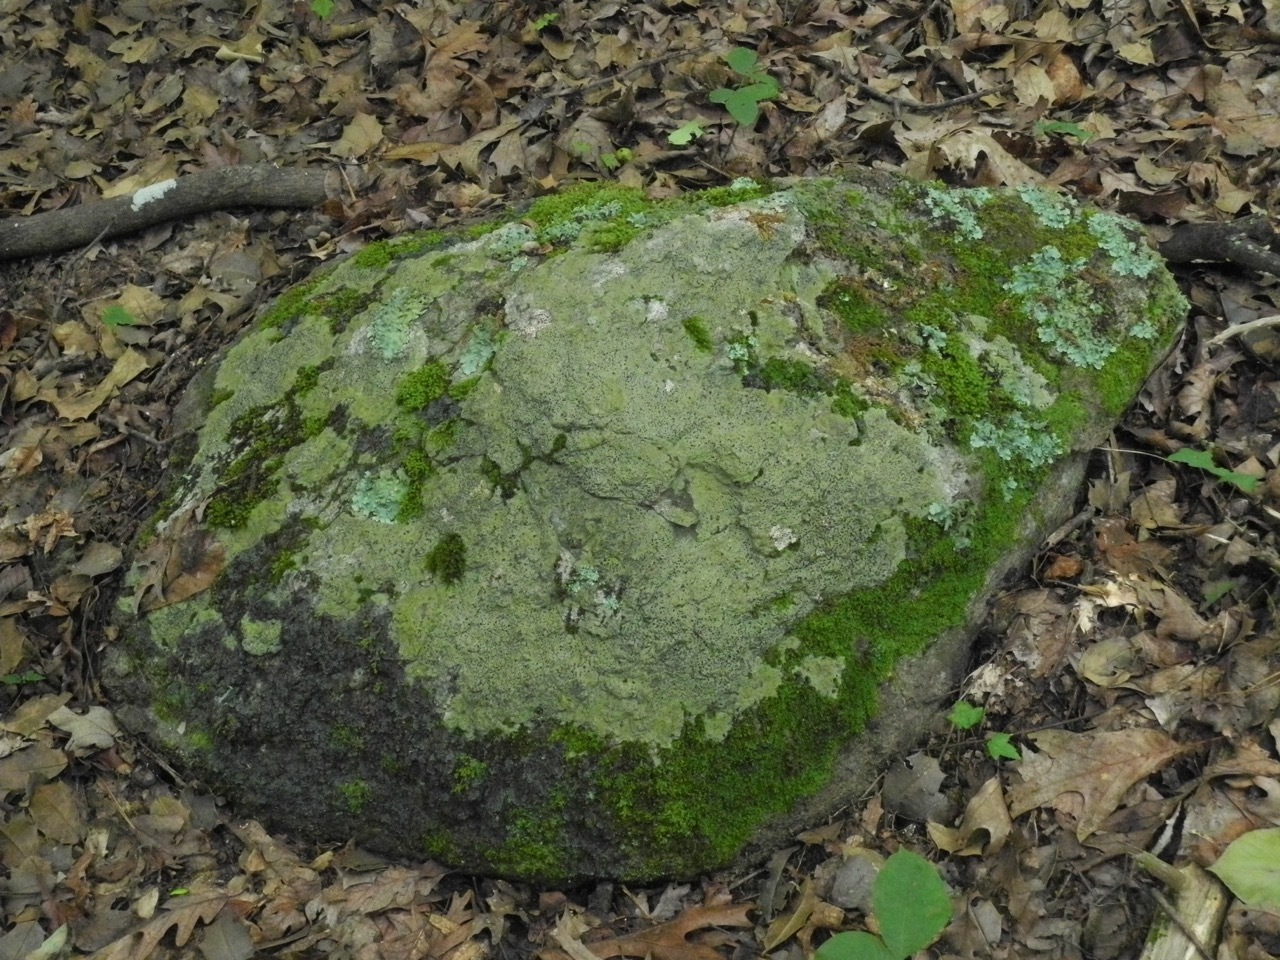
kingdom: Fungi
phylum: Ascomycota
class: Lecanoromycetes
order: Lecideales
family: Lecideaceae
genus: Porpidia
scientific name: Porpidia albocaerulescens
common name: Smokey-eyed boulder lichen
